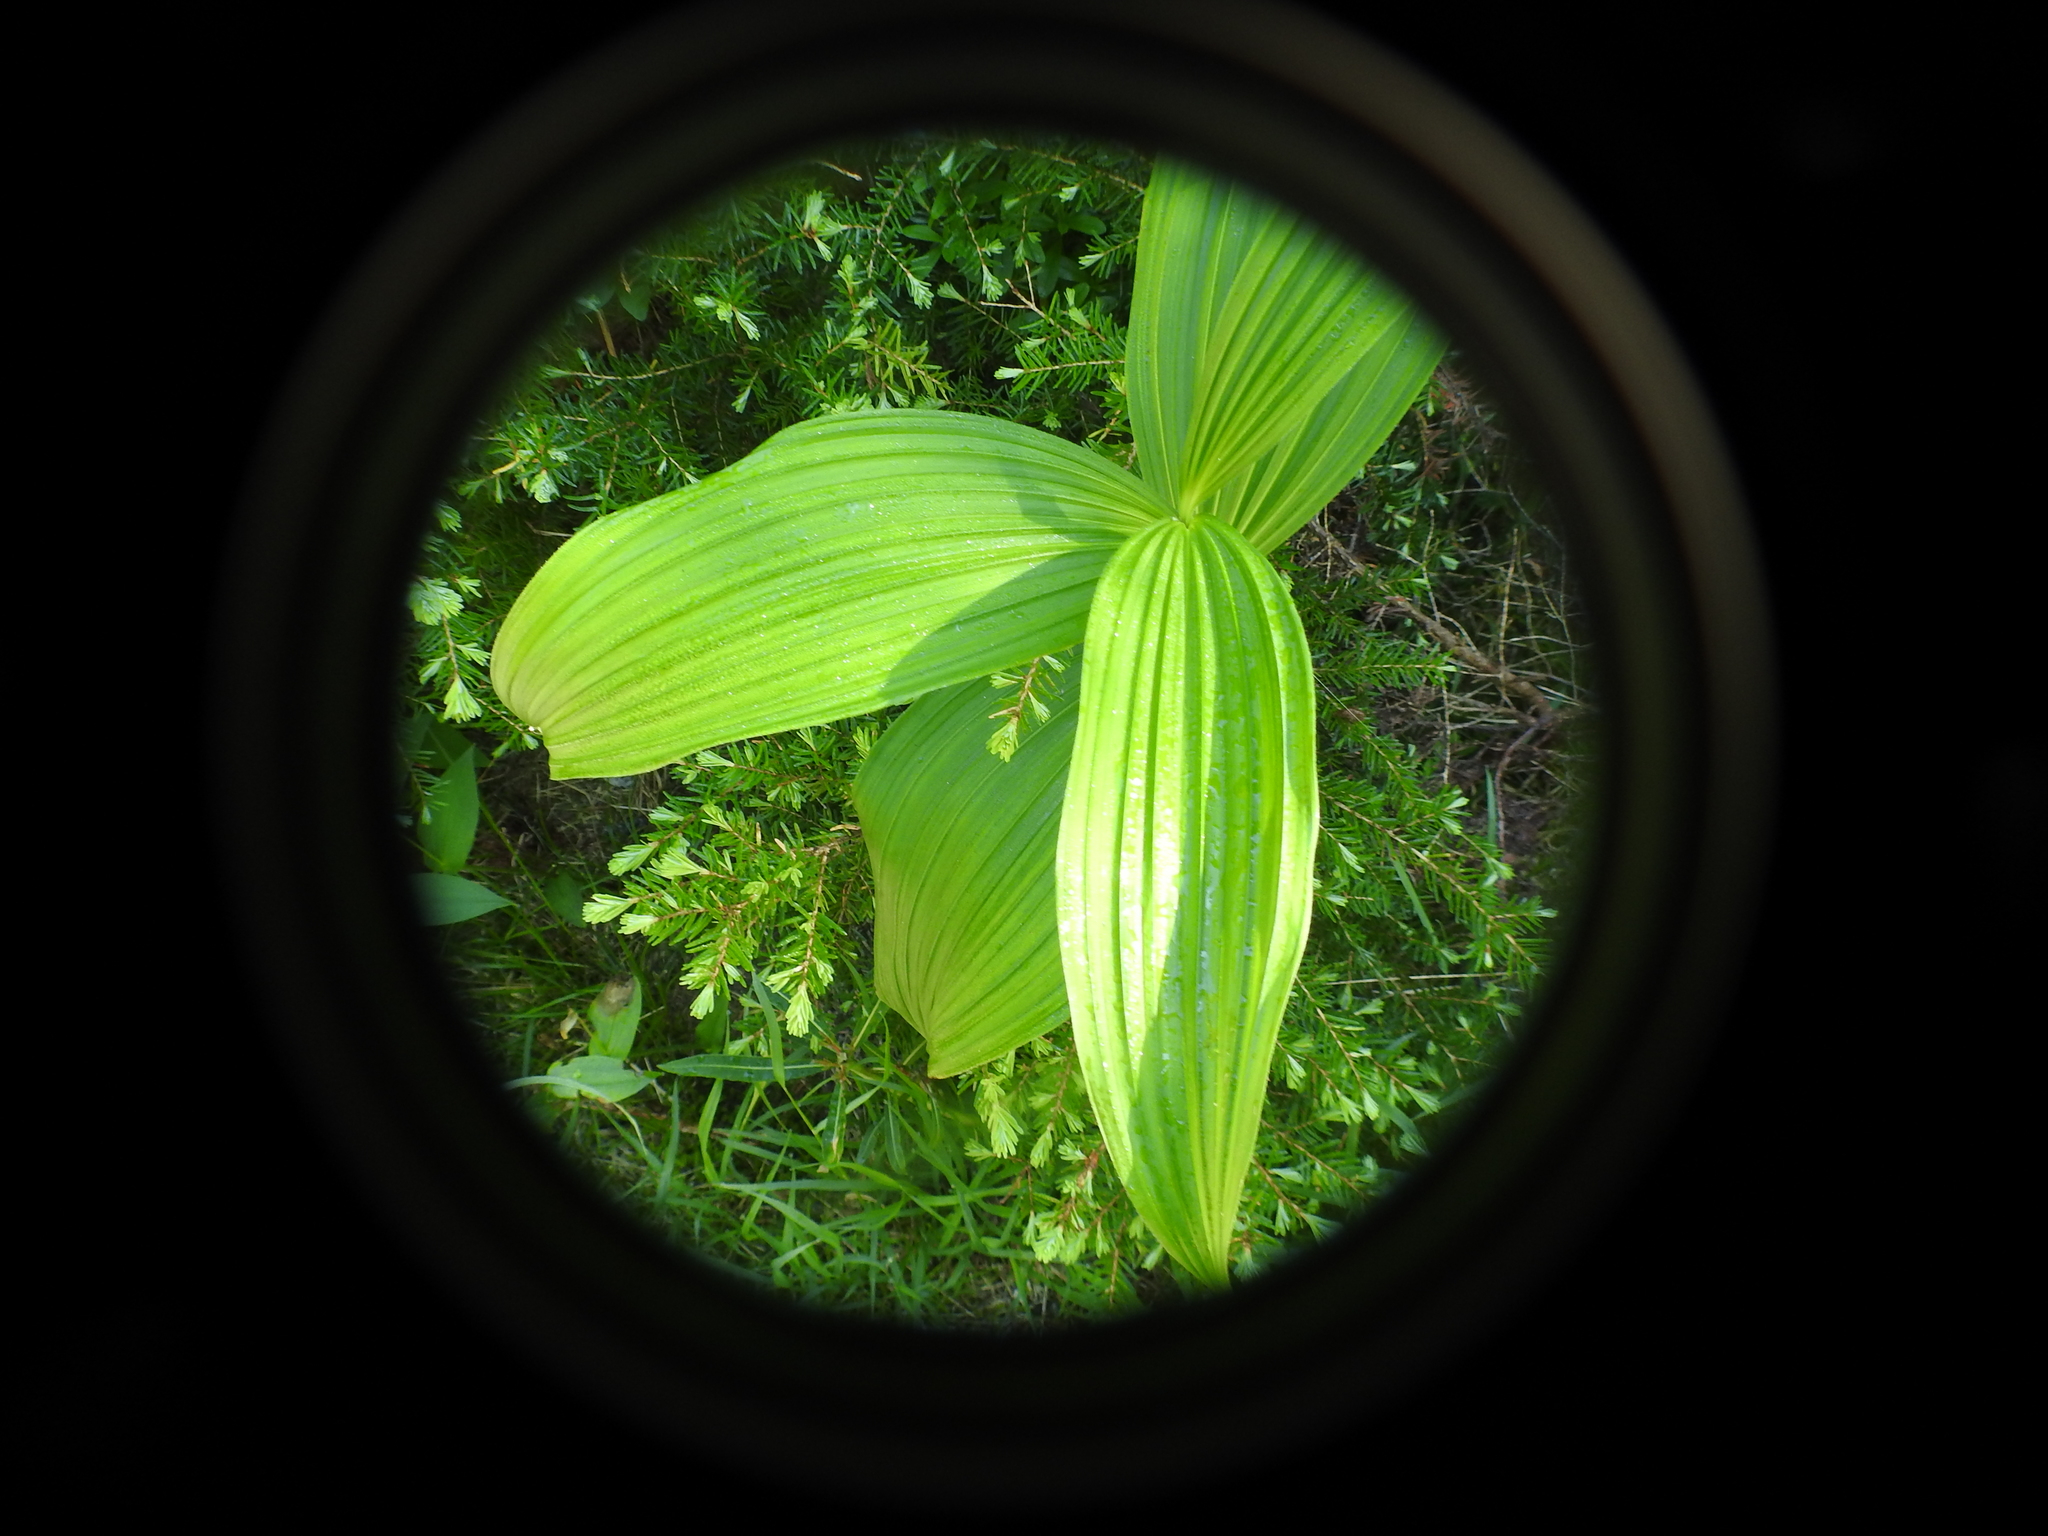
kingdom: Plantae
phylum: Tracheophyta
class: Liliopsida
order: Liliales
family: Melanthiaceae
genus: Veratrum
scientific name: Veratrum viride
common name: American false hellebore
